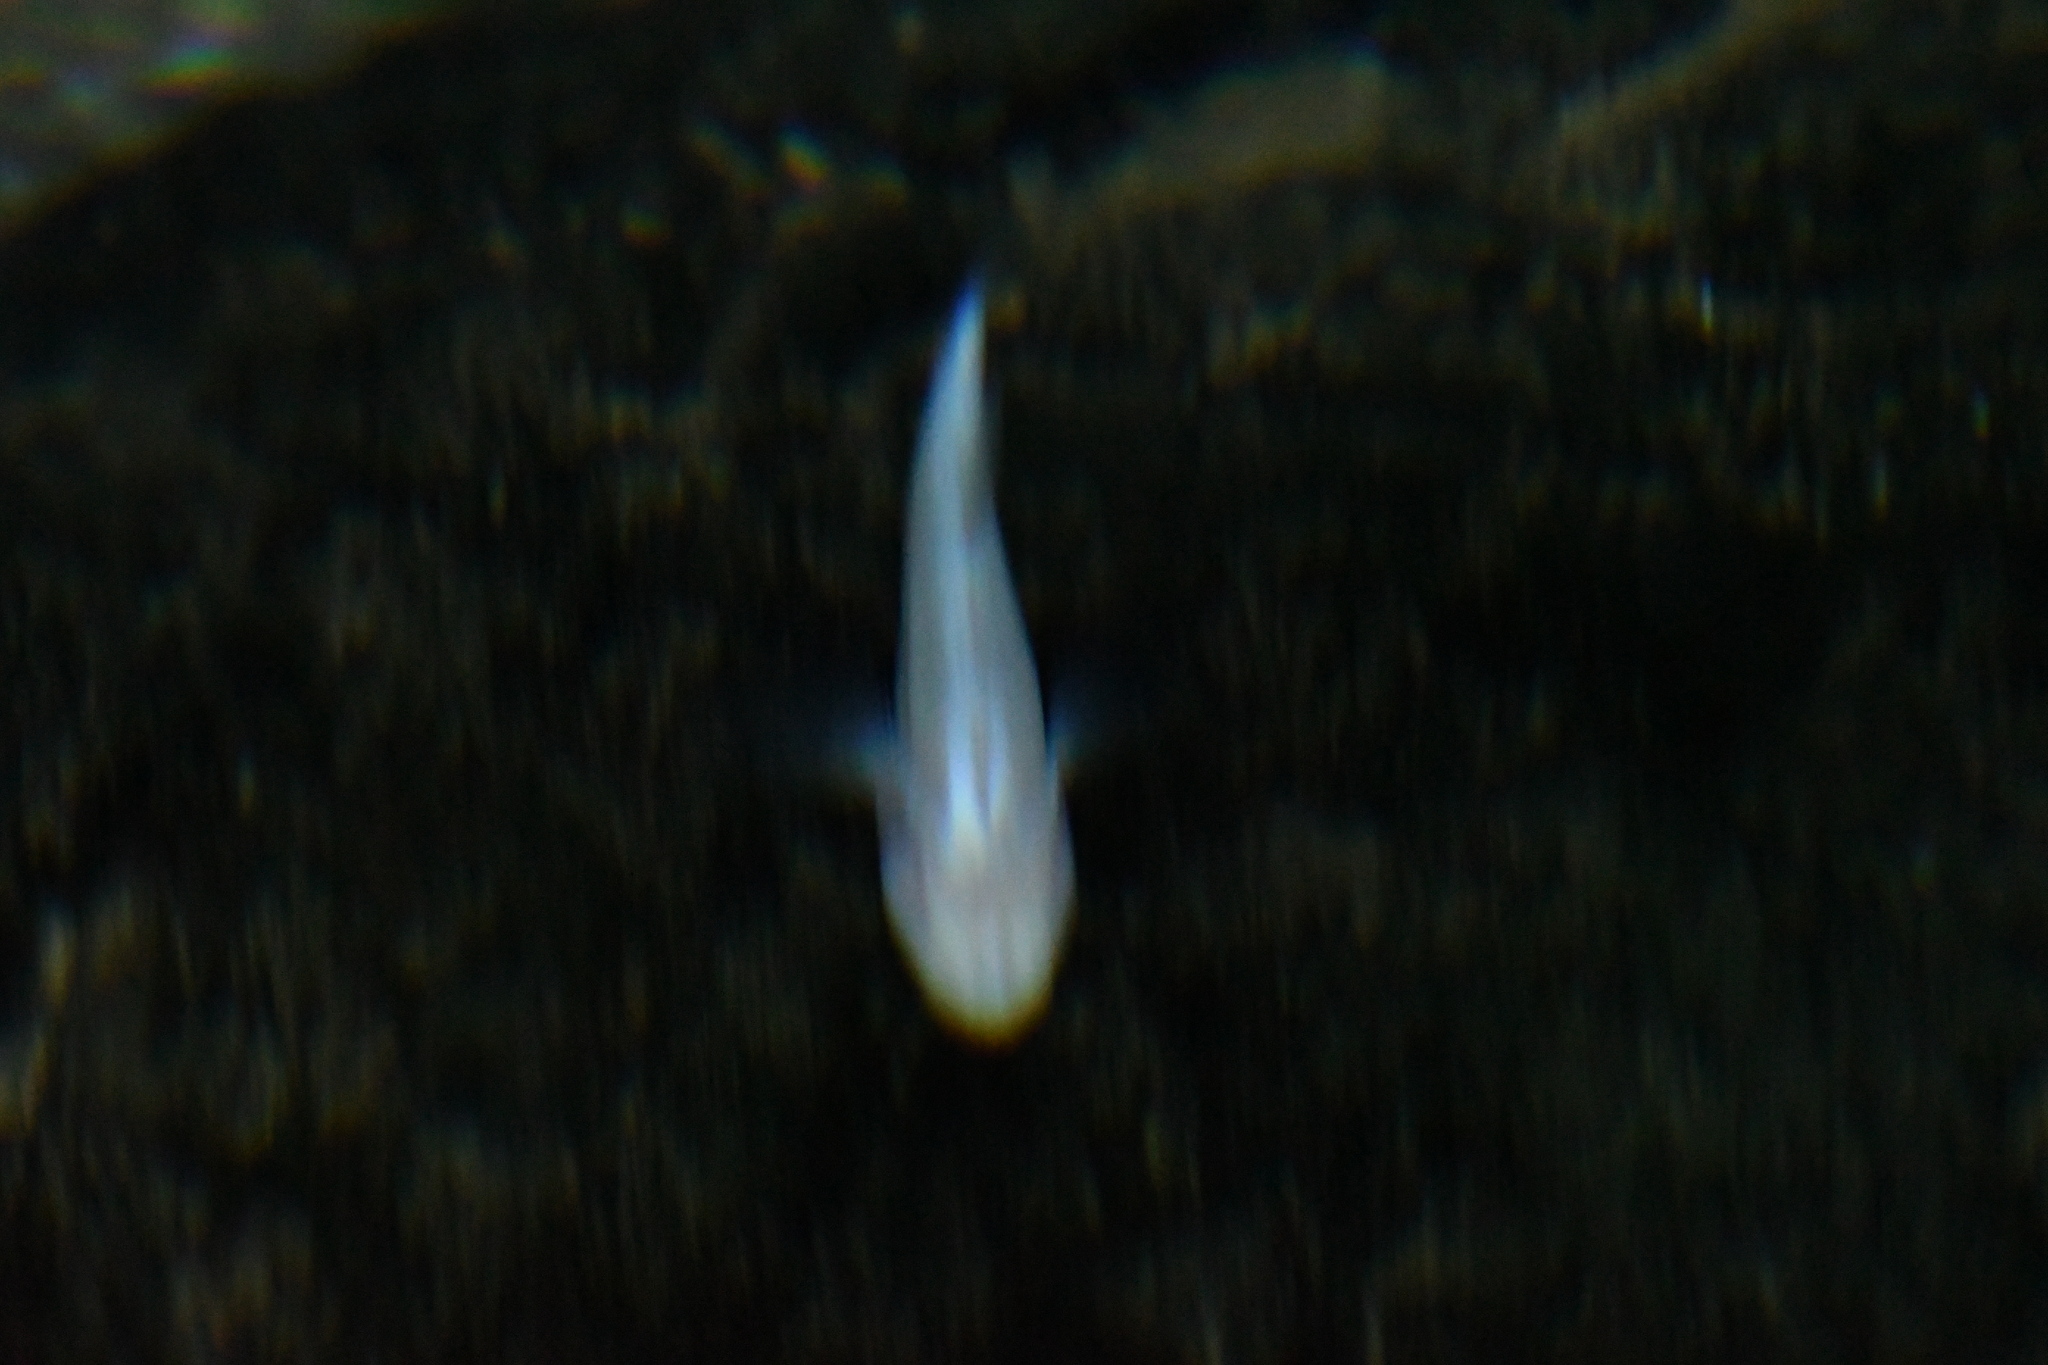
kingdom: Animalia
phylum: Chordata
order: Perciformes
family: Eleotridae
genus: Typhleotris
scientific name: Typhleotris madagascariensis
